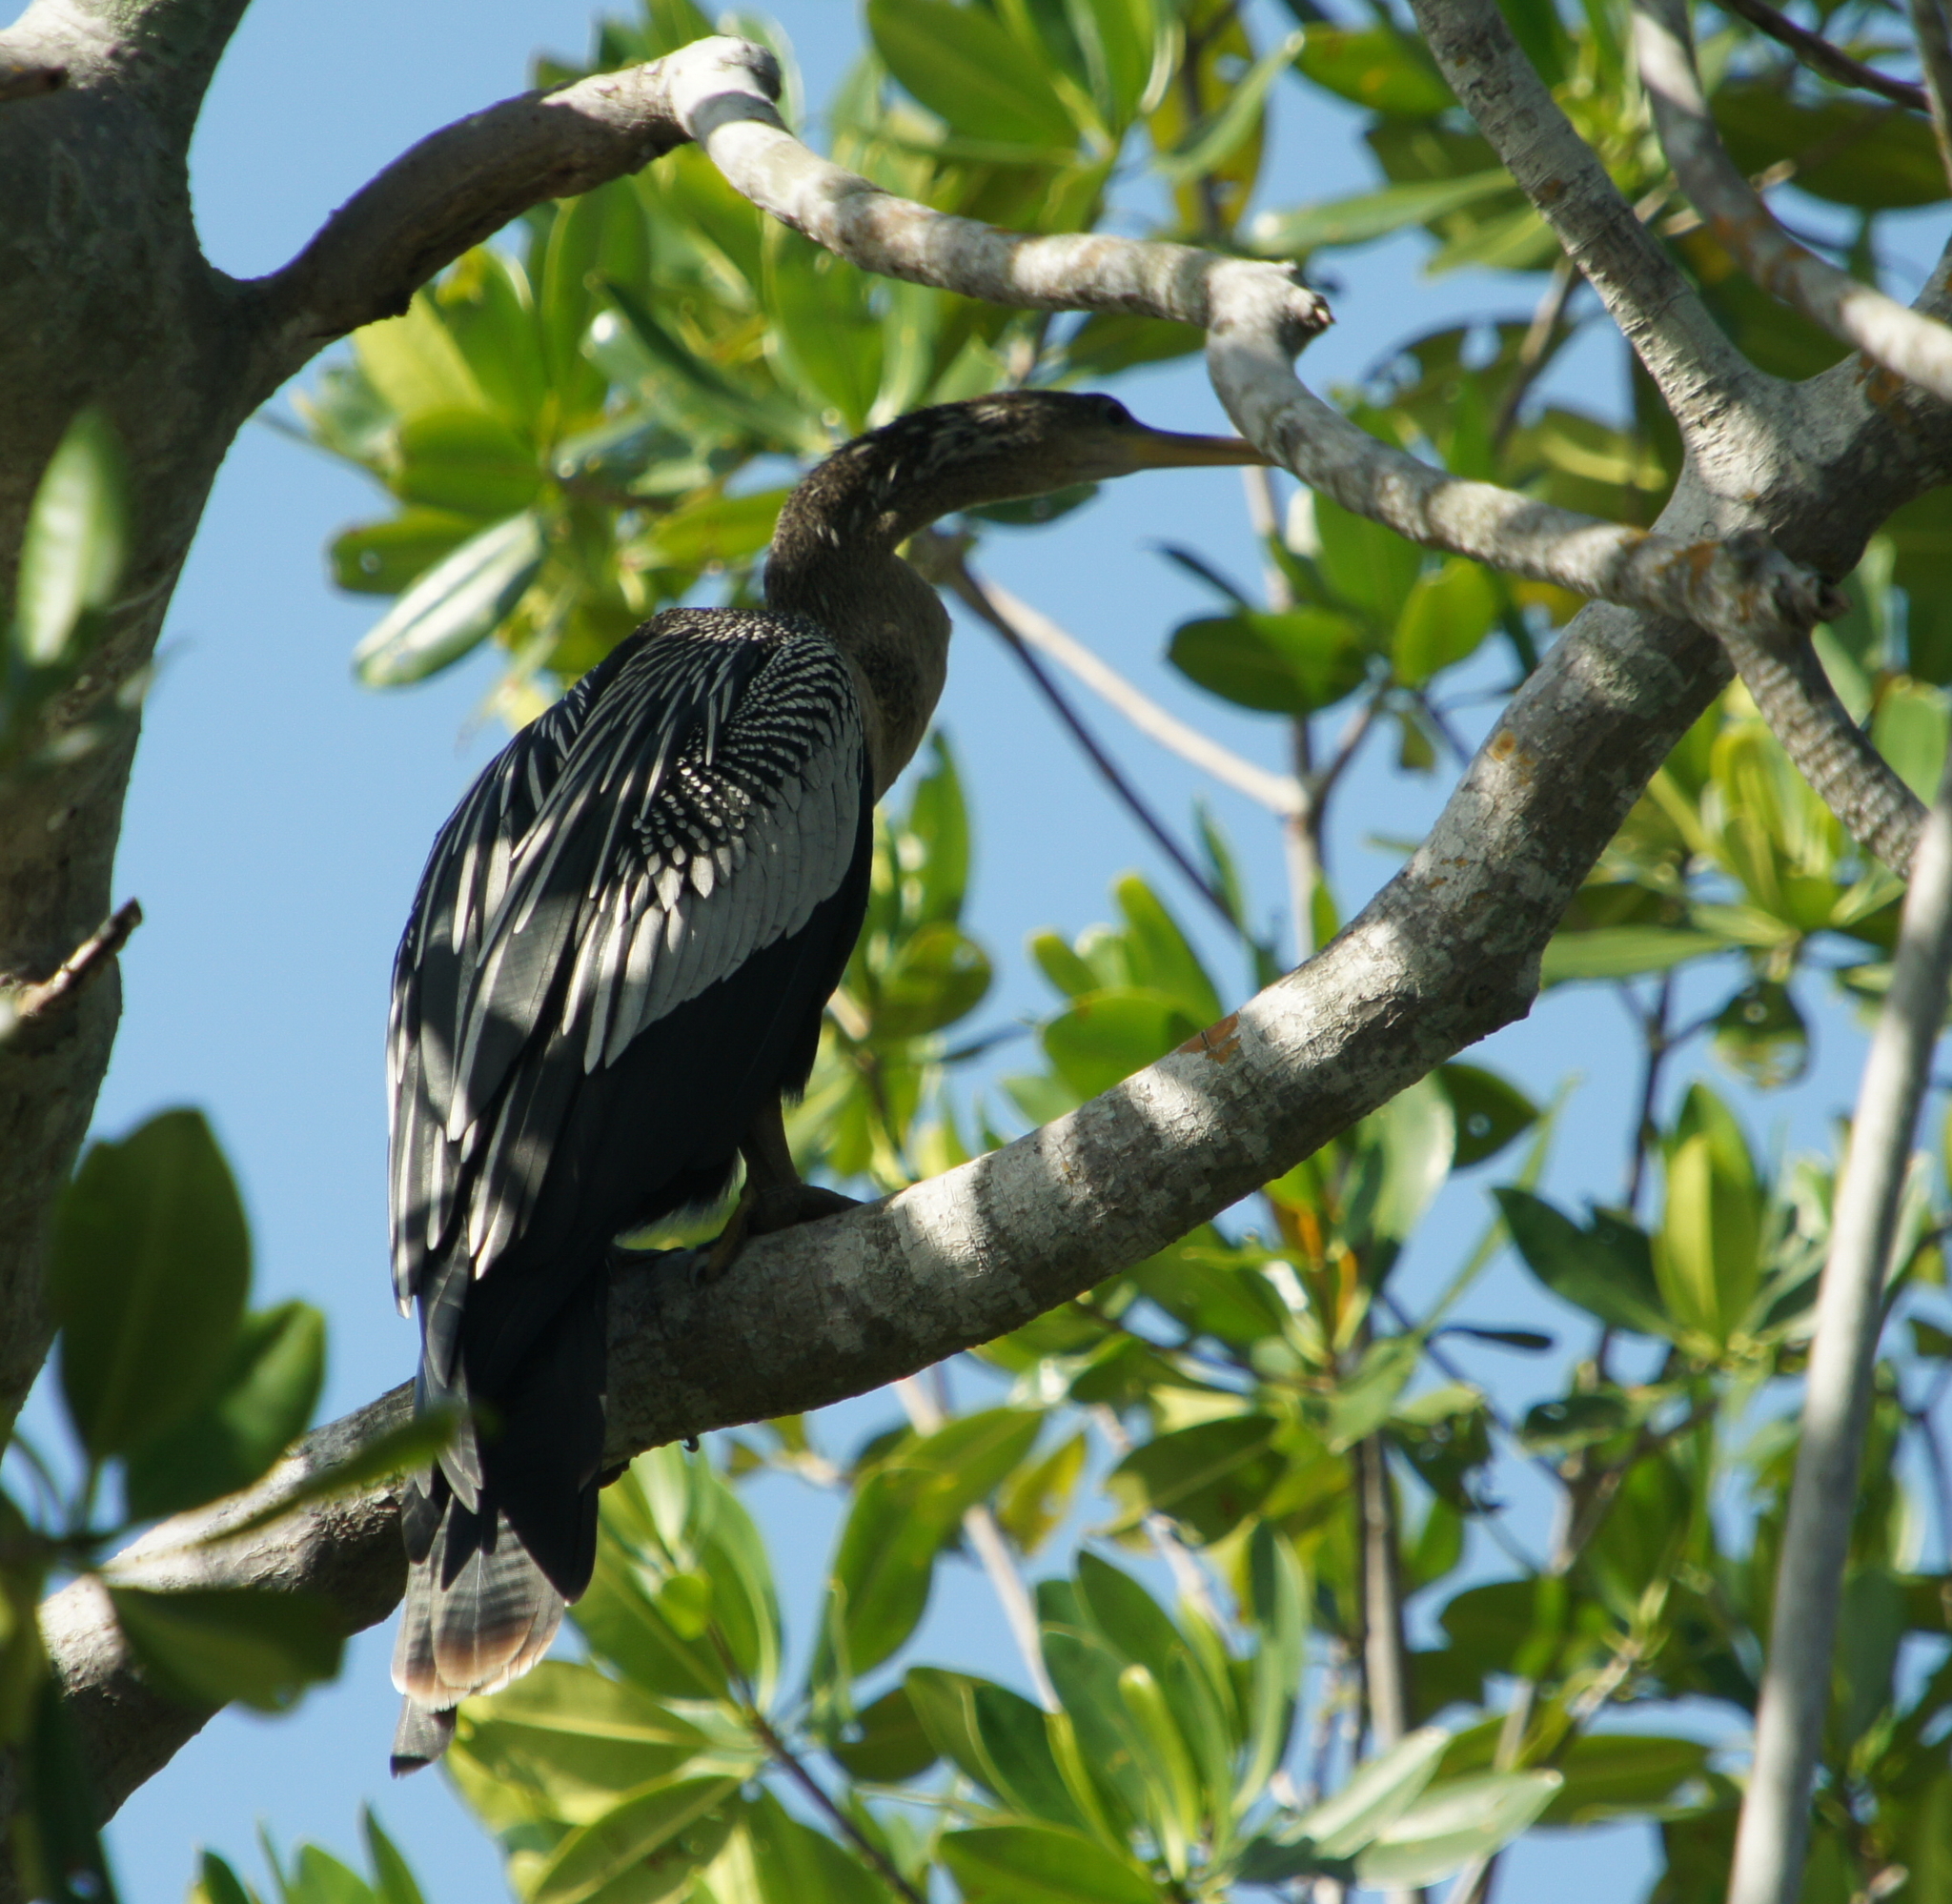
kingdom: Animalia
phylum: Chordata
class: Aves
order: Suliformes
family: Anhingidae
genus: Anhinga
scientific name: Anhinga anhinga
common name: Anhinga
